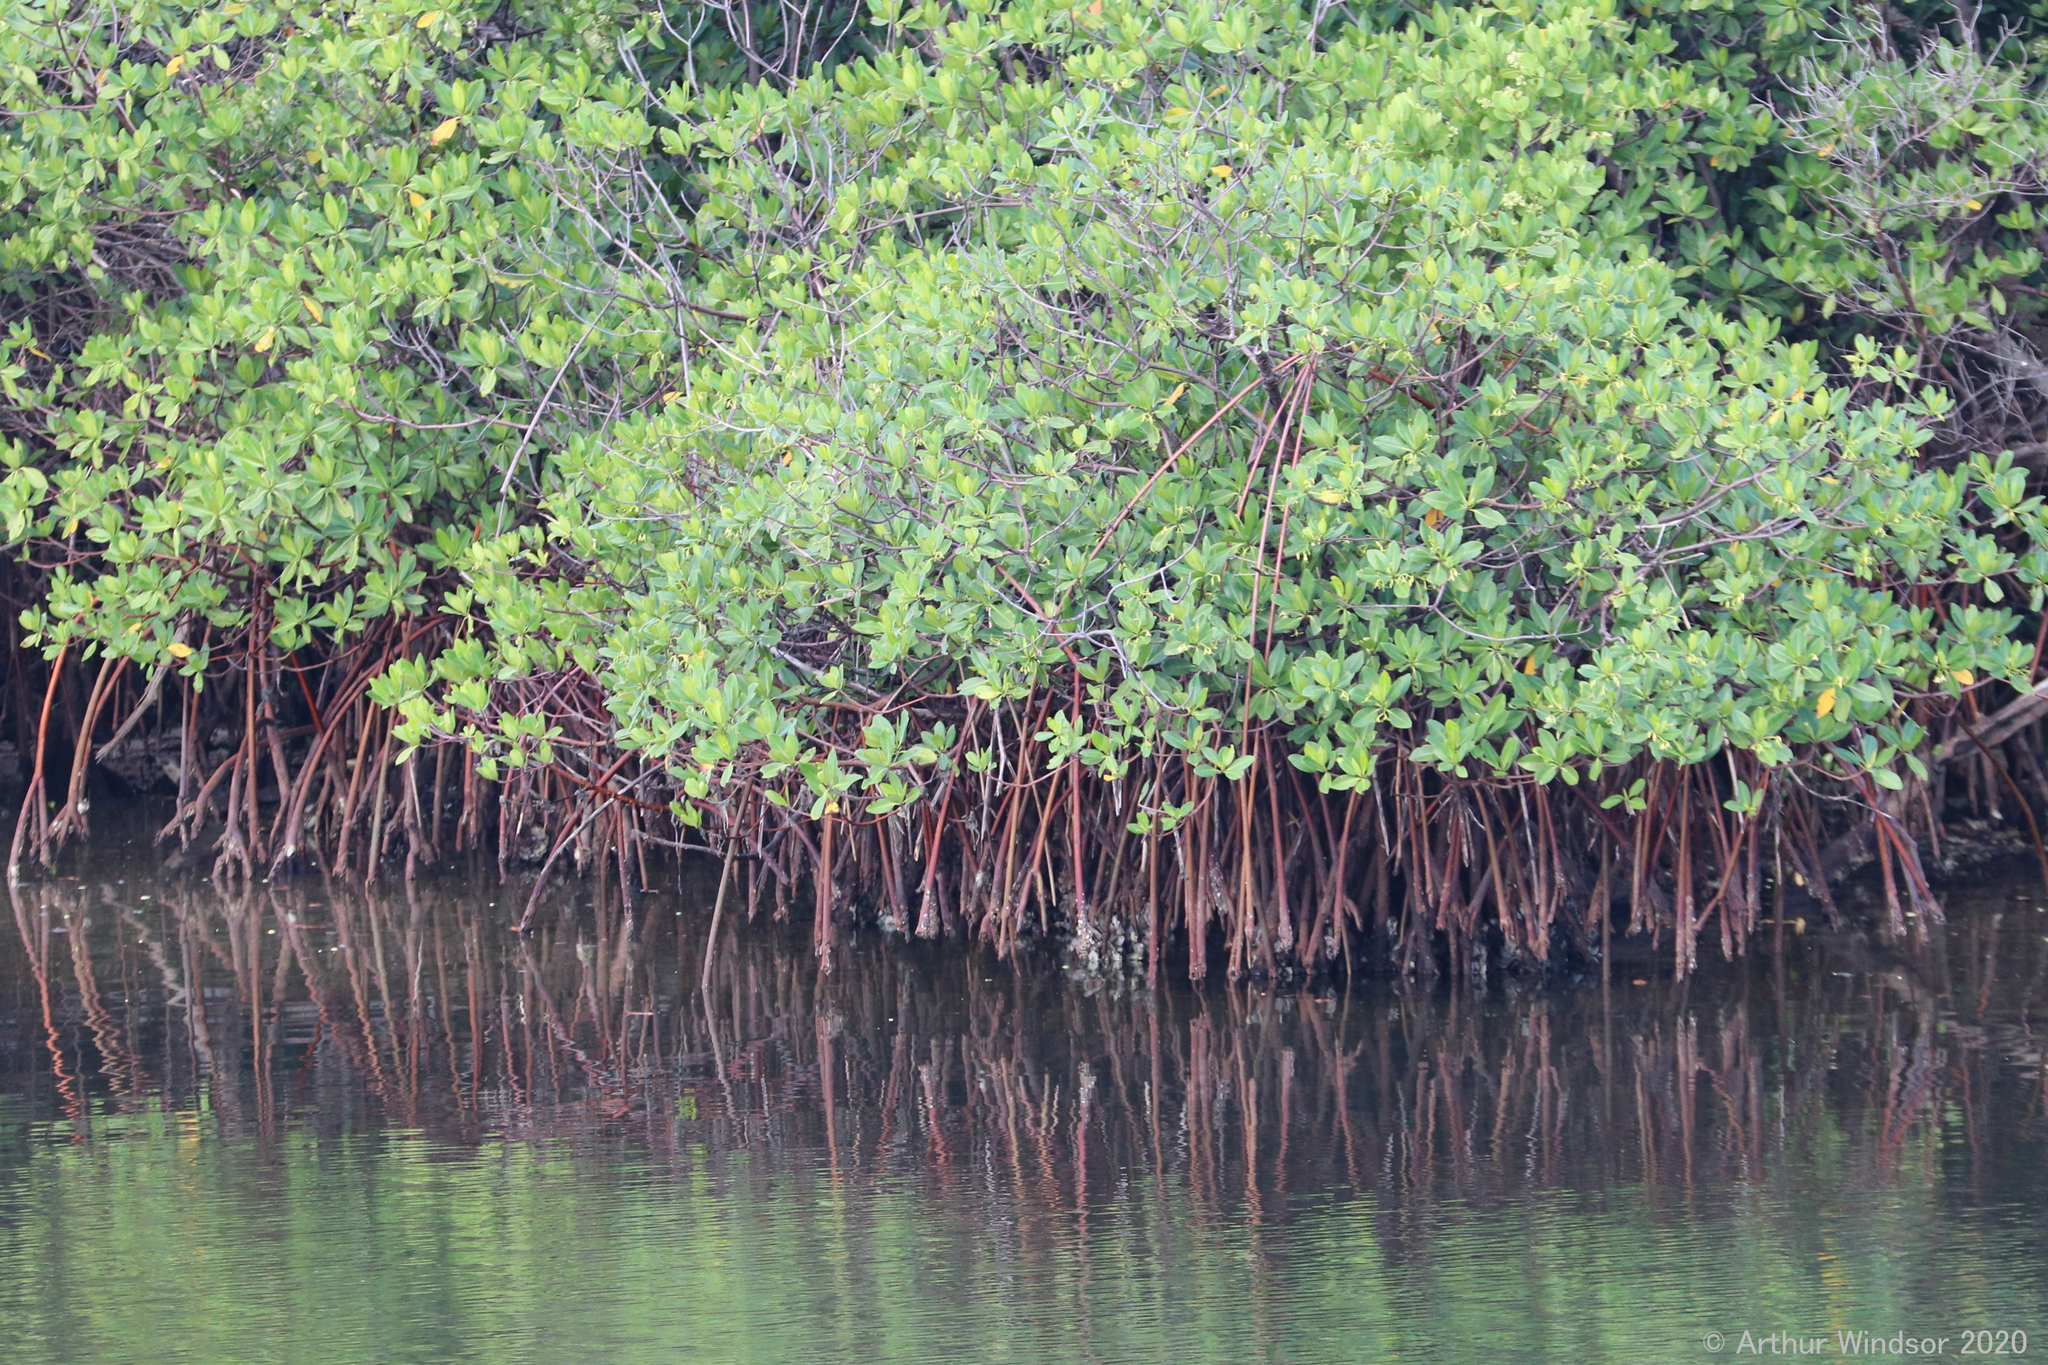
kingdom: Plantae
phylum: Tracheophyta
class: Magnoliopsida
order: Malpighiales
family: Rhizophoraceae
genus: Rhizophora
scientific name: Rhizophora mangle
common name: Red mangrove
